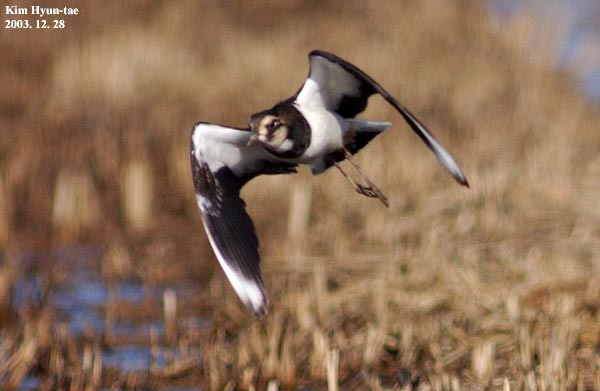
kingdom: Animalia
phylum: Chordata
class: Aves
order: Charadriiformes
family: Charadriidae
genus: Vanellus
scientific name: Vanellus vanellus
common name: Northern lapwing
